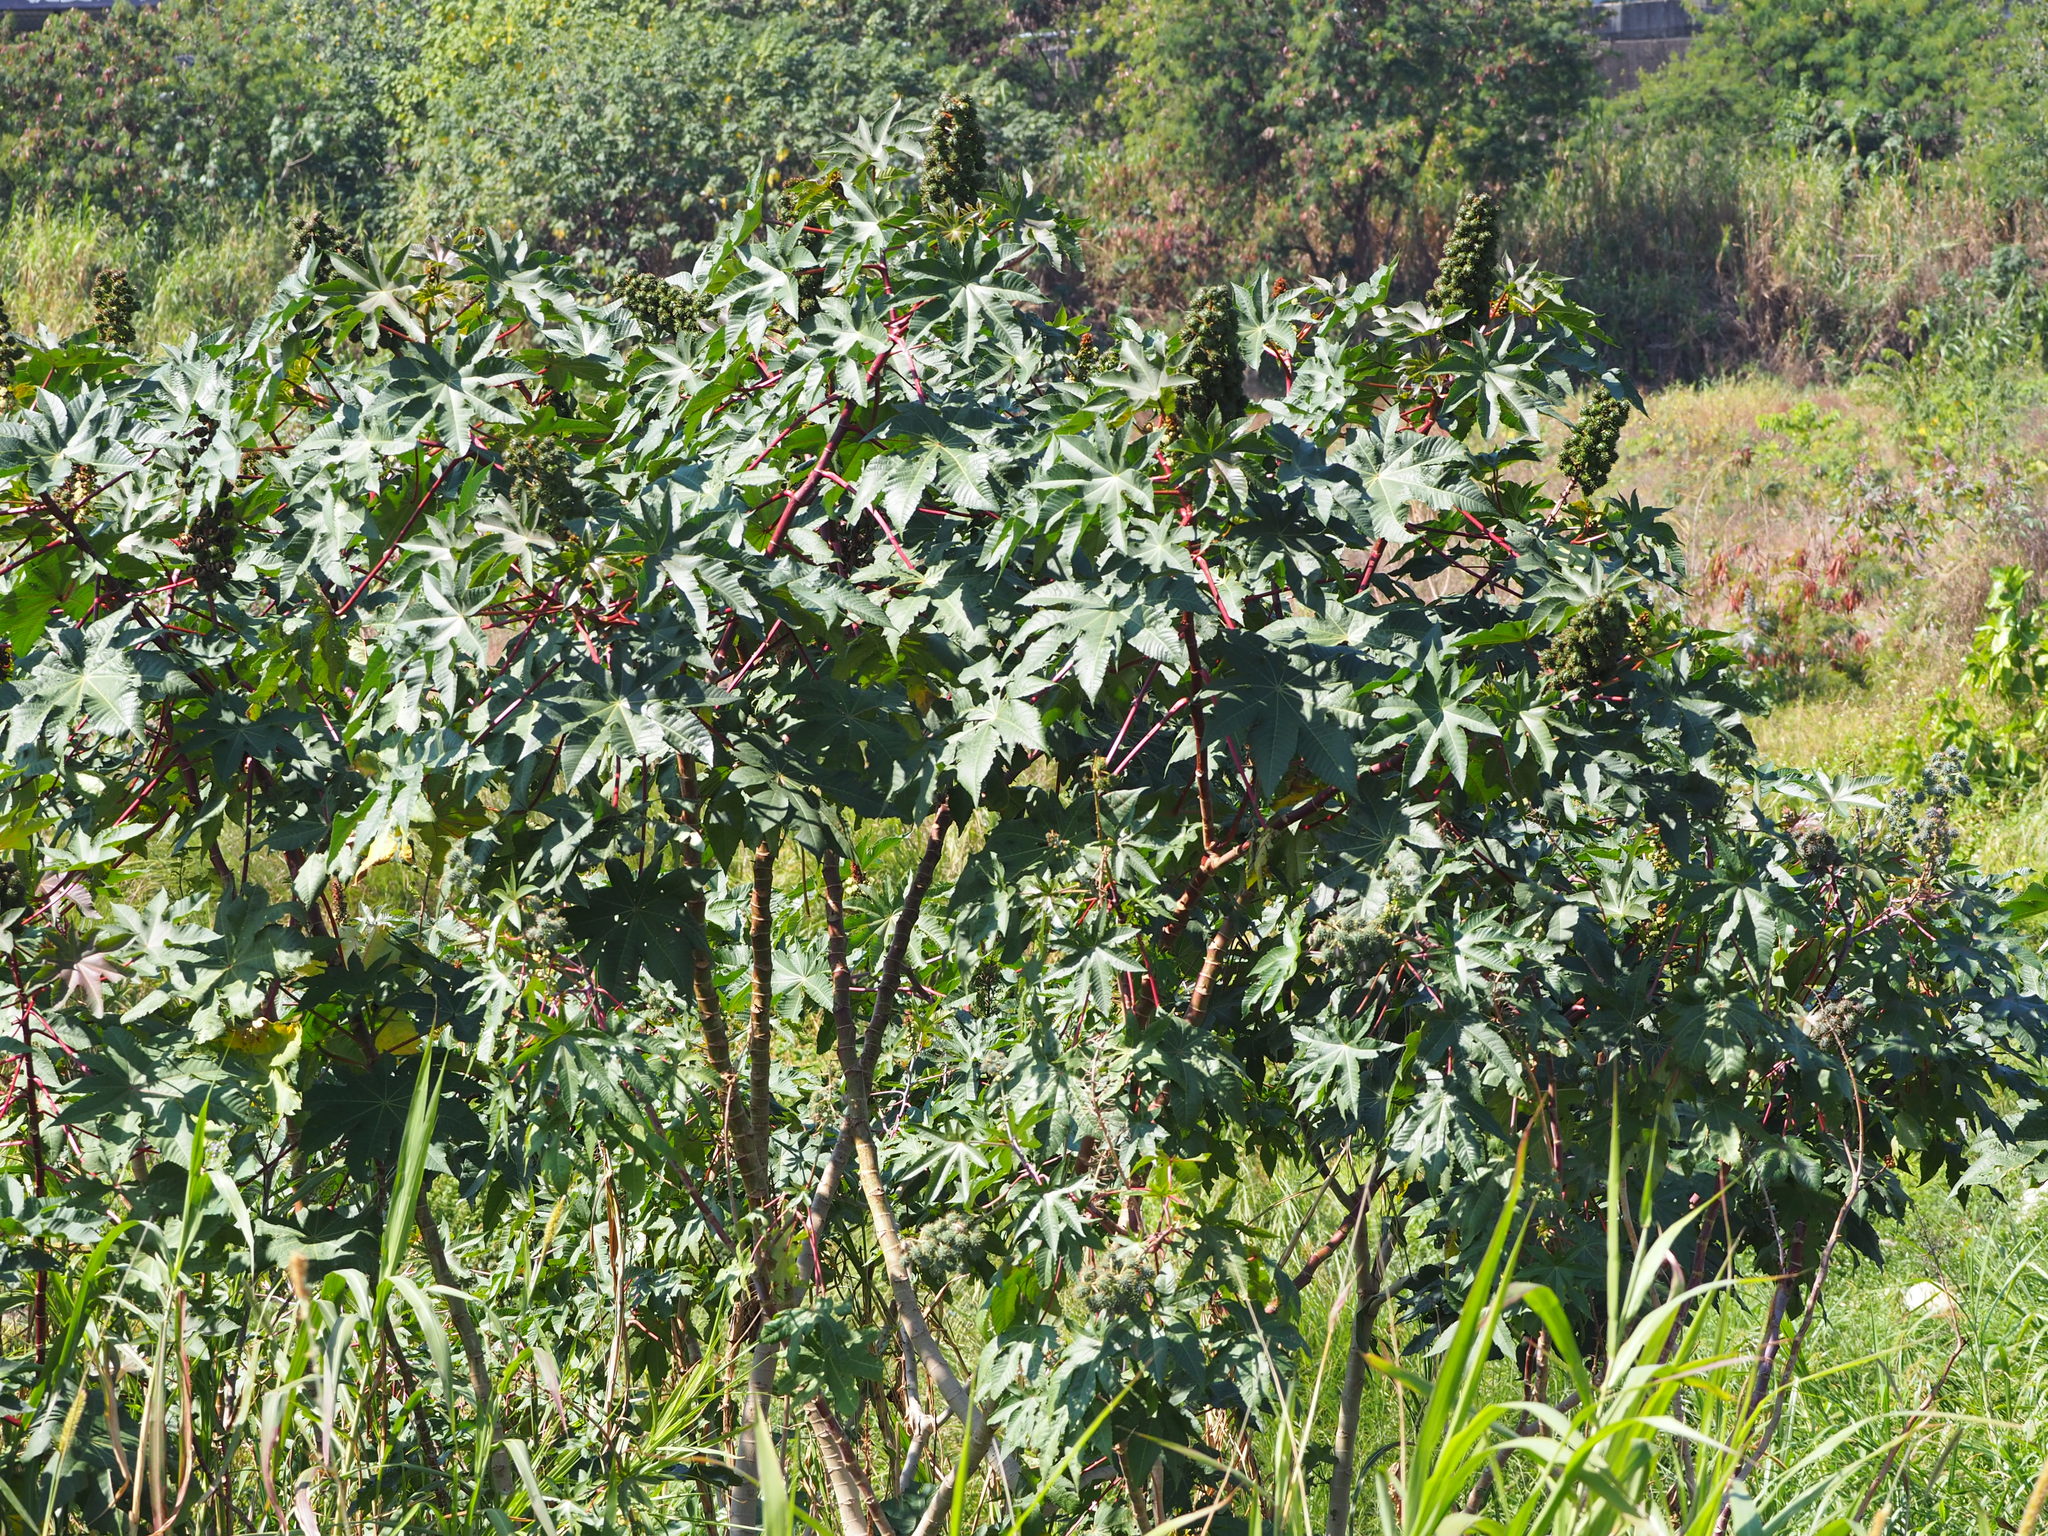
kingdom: Plantae
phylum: Tracheophyta
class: Magnoliopsida
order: Malpighiales
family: Euphorbiaceae
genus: Ricinus
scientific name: Ricinus communis
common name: Castor-oil-plant
